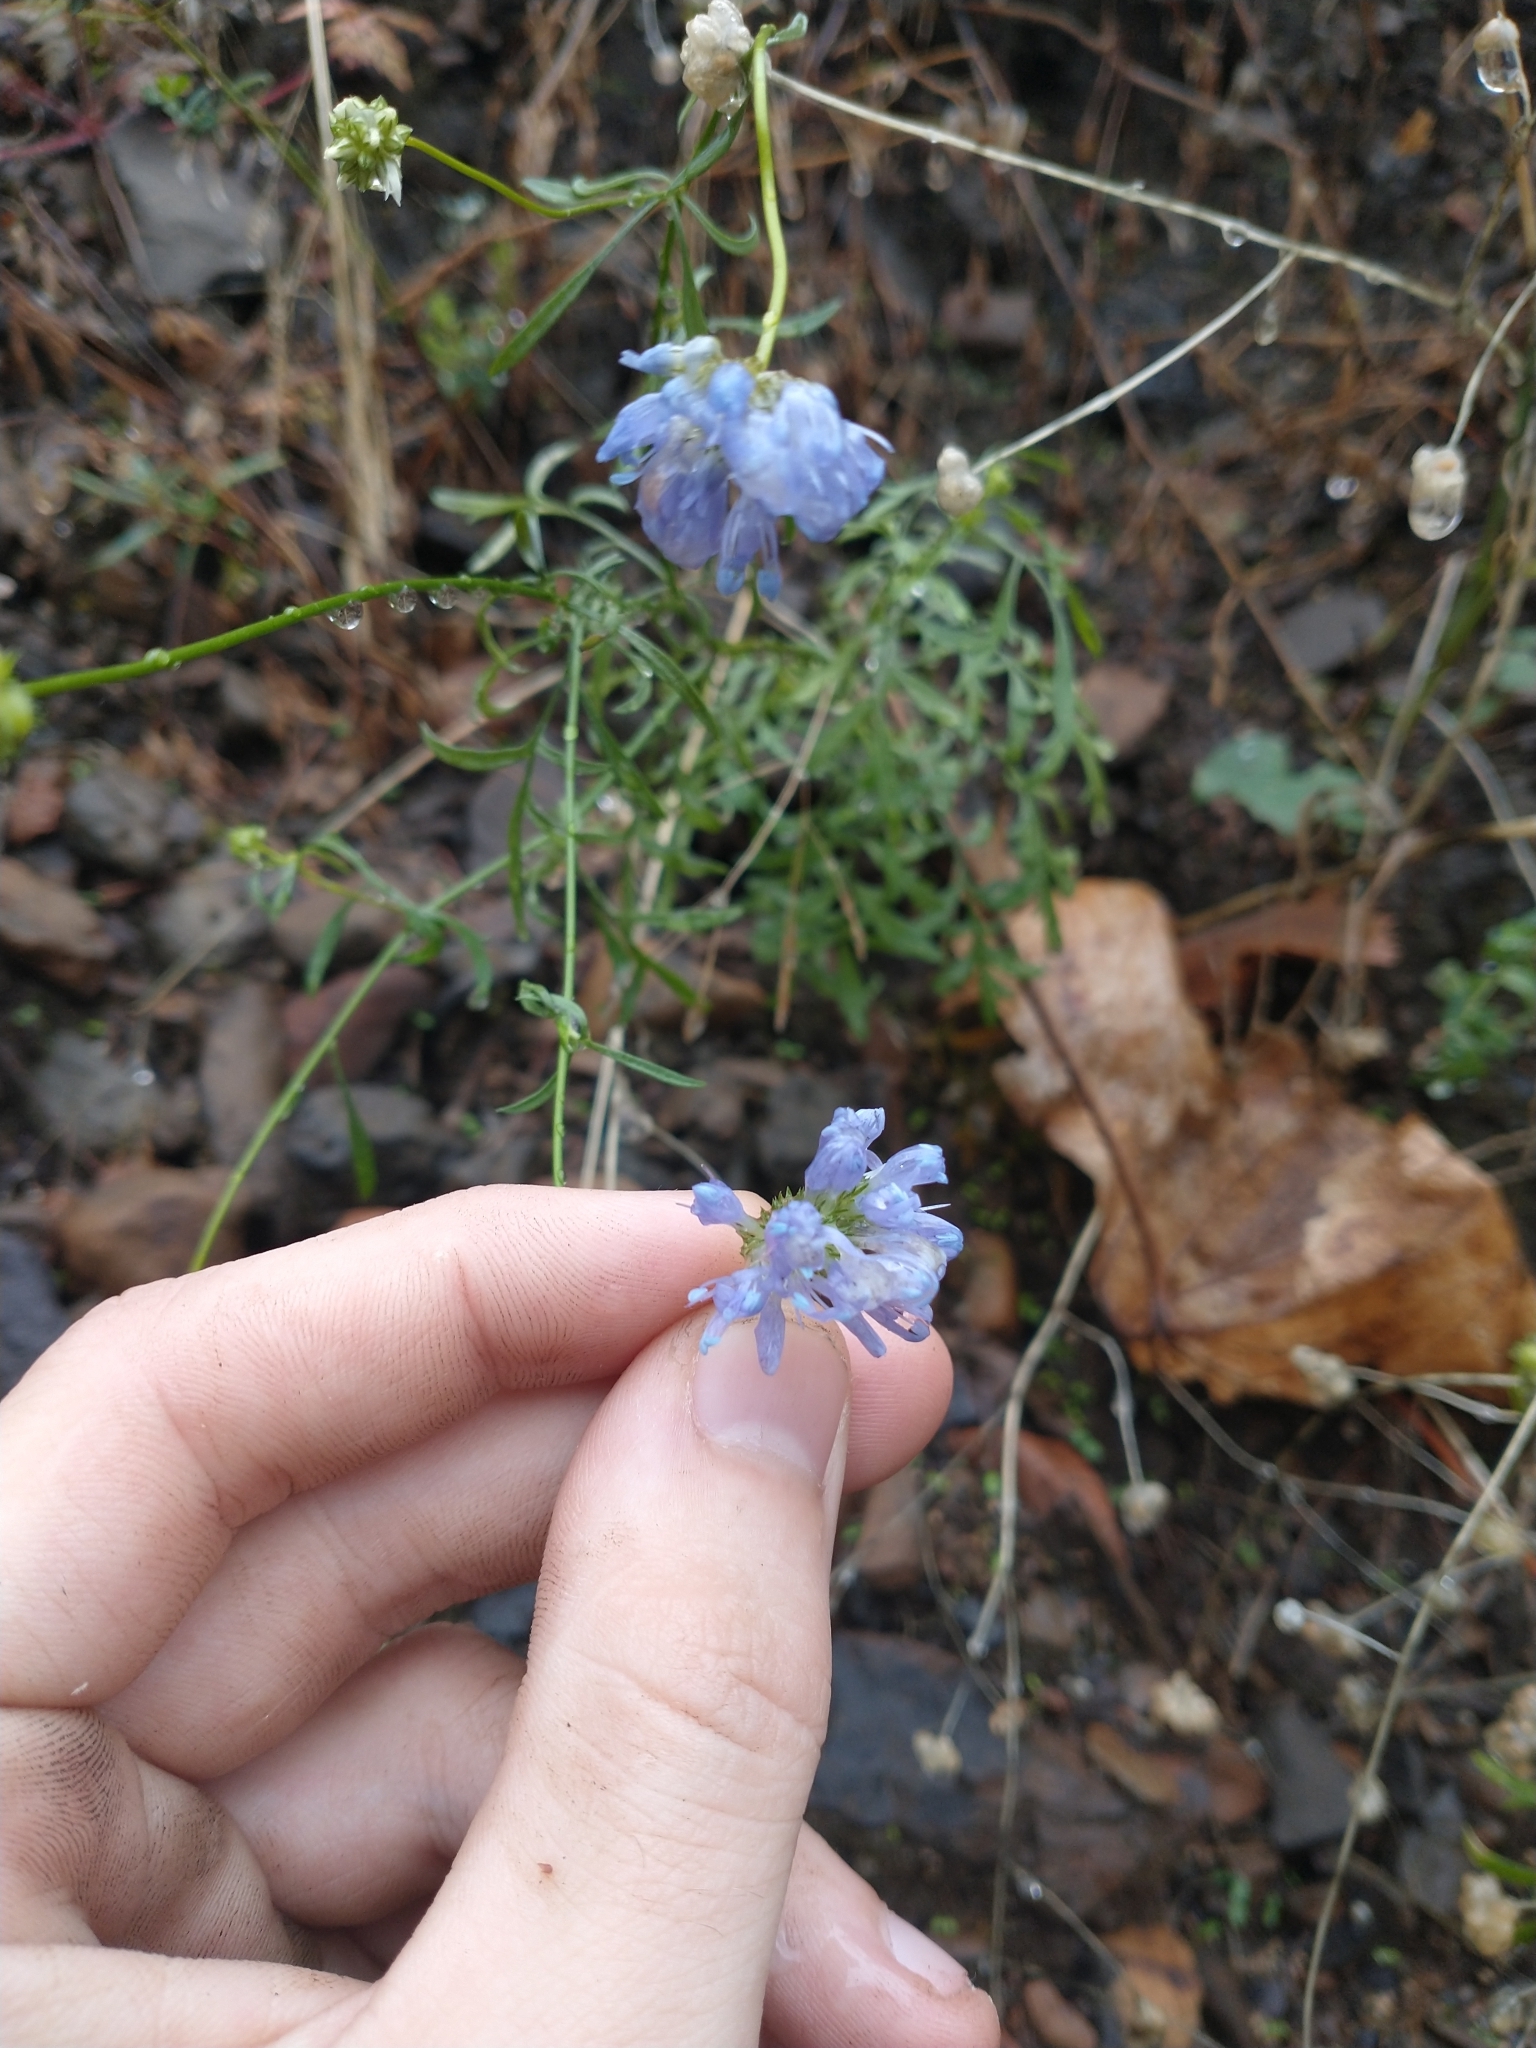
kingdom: Plantae
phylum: Tracheophyta
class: Magnoliopsida
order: Ericales
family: Polemoniaceae
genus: Gilia
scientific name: Gilia capitata
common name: Bluehead gilia
